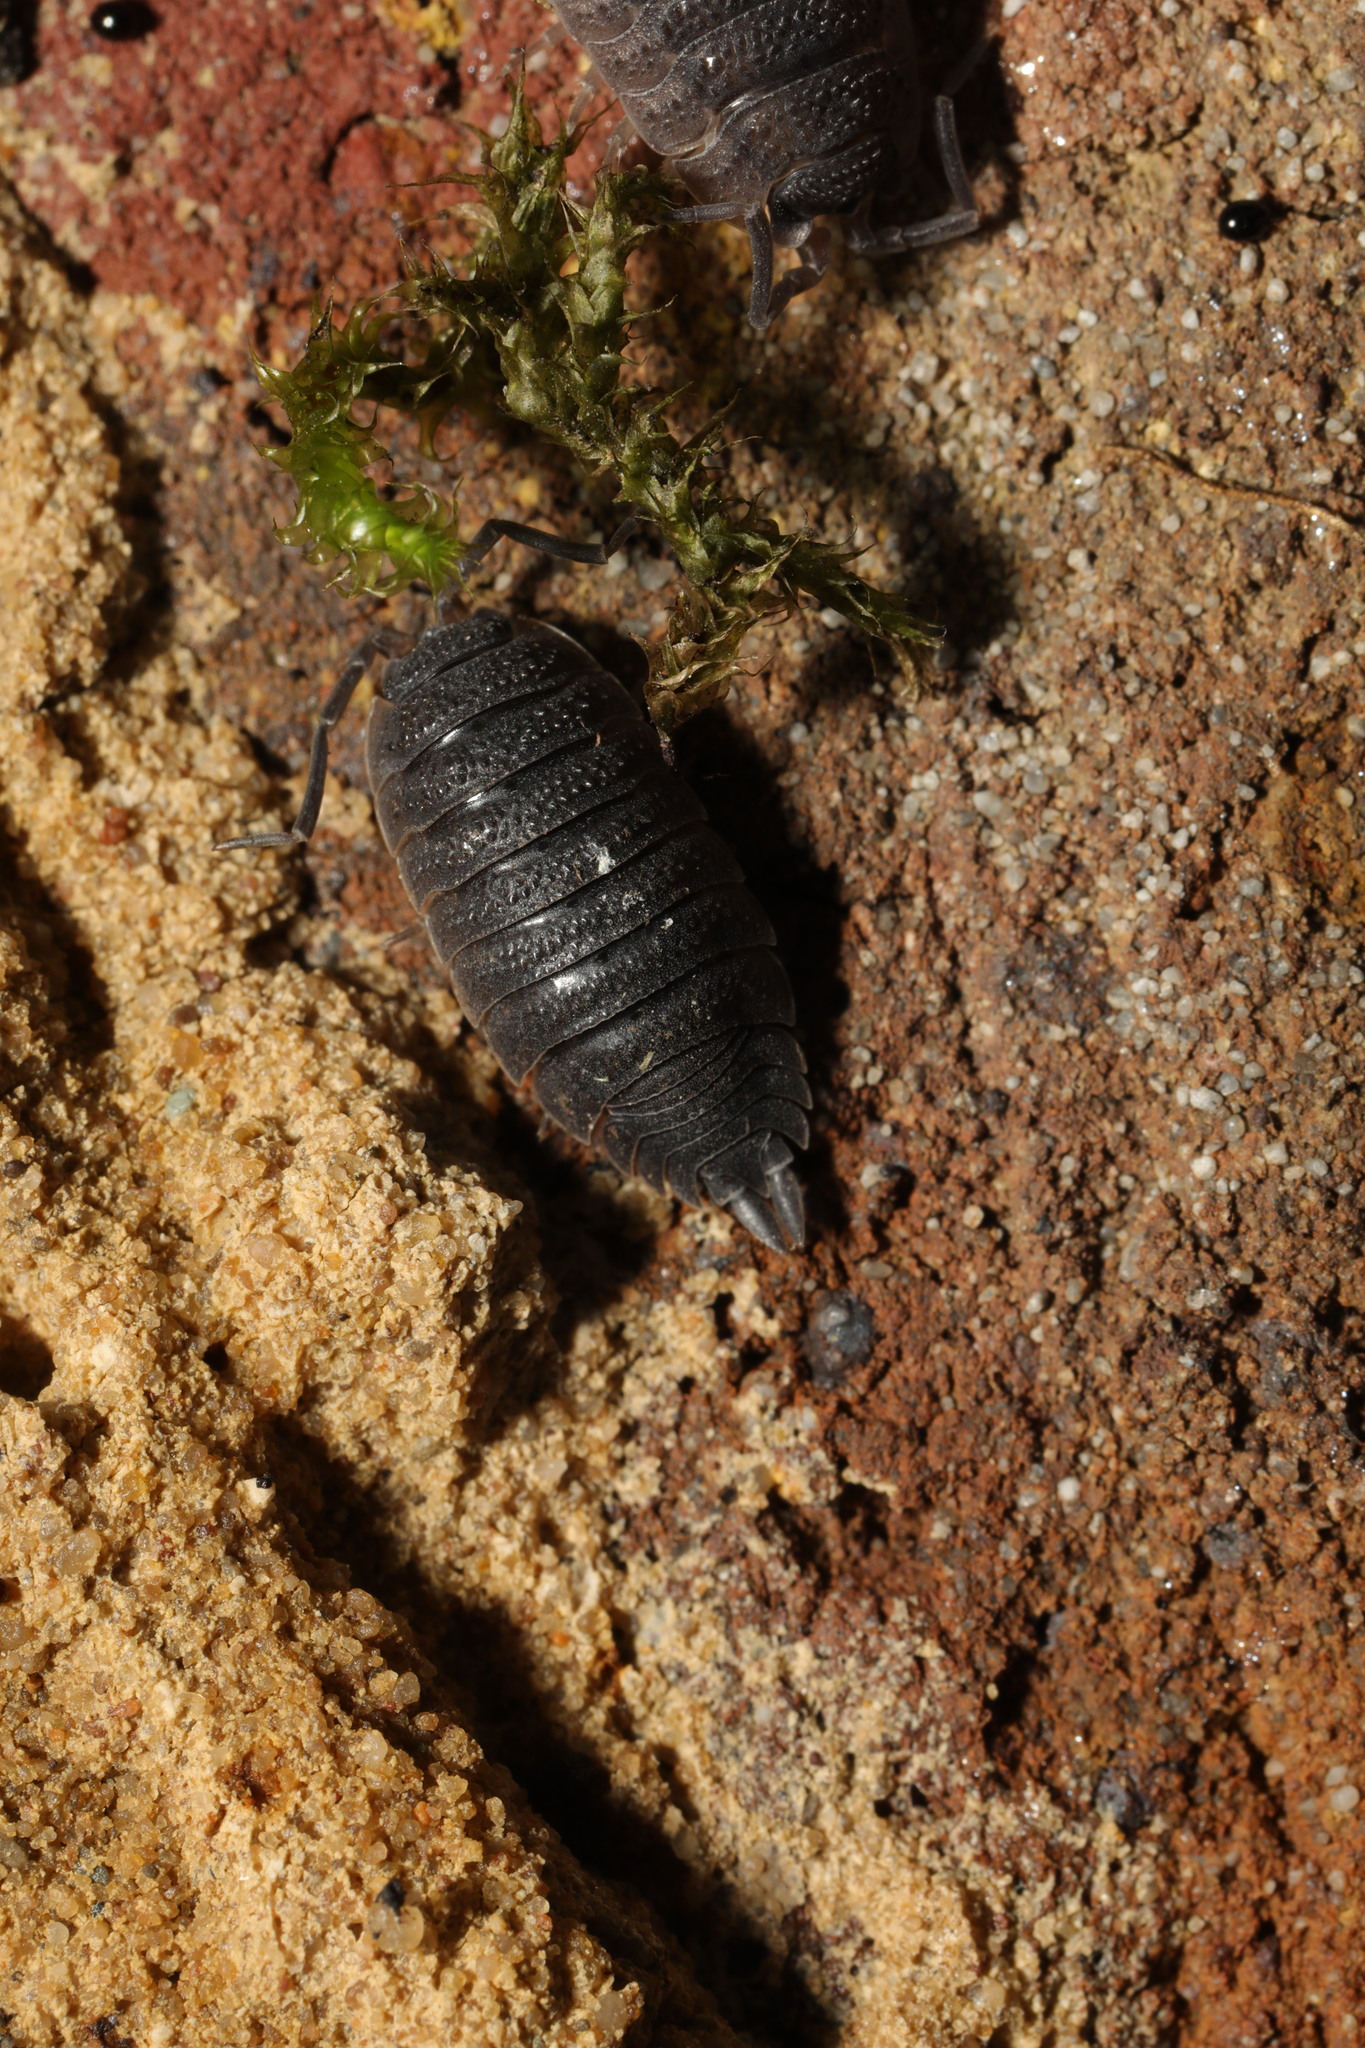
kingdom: Animalia
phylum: Arthropoda
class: Malacostraca
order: Isopoda
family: Porcellionidae
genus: Porcellio
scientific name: Porcellio scaber
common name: Common rough woodlouse
